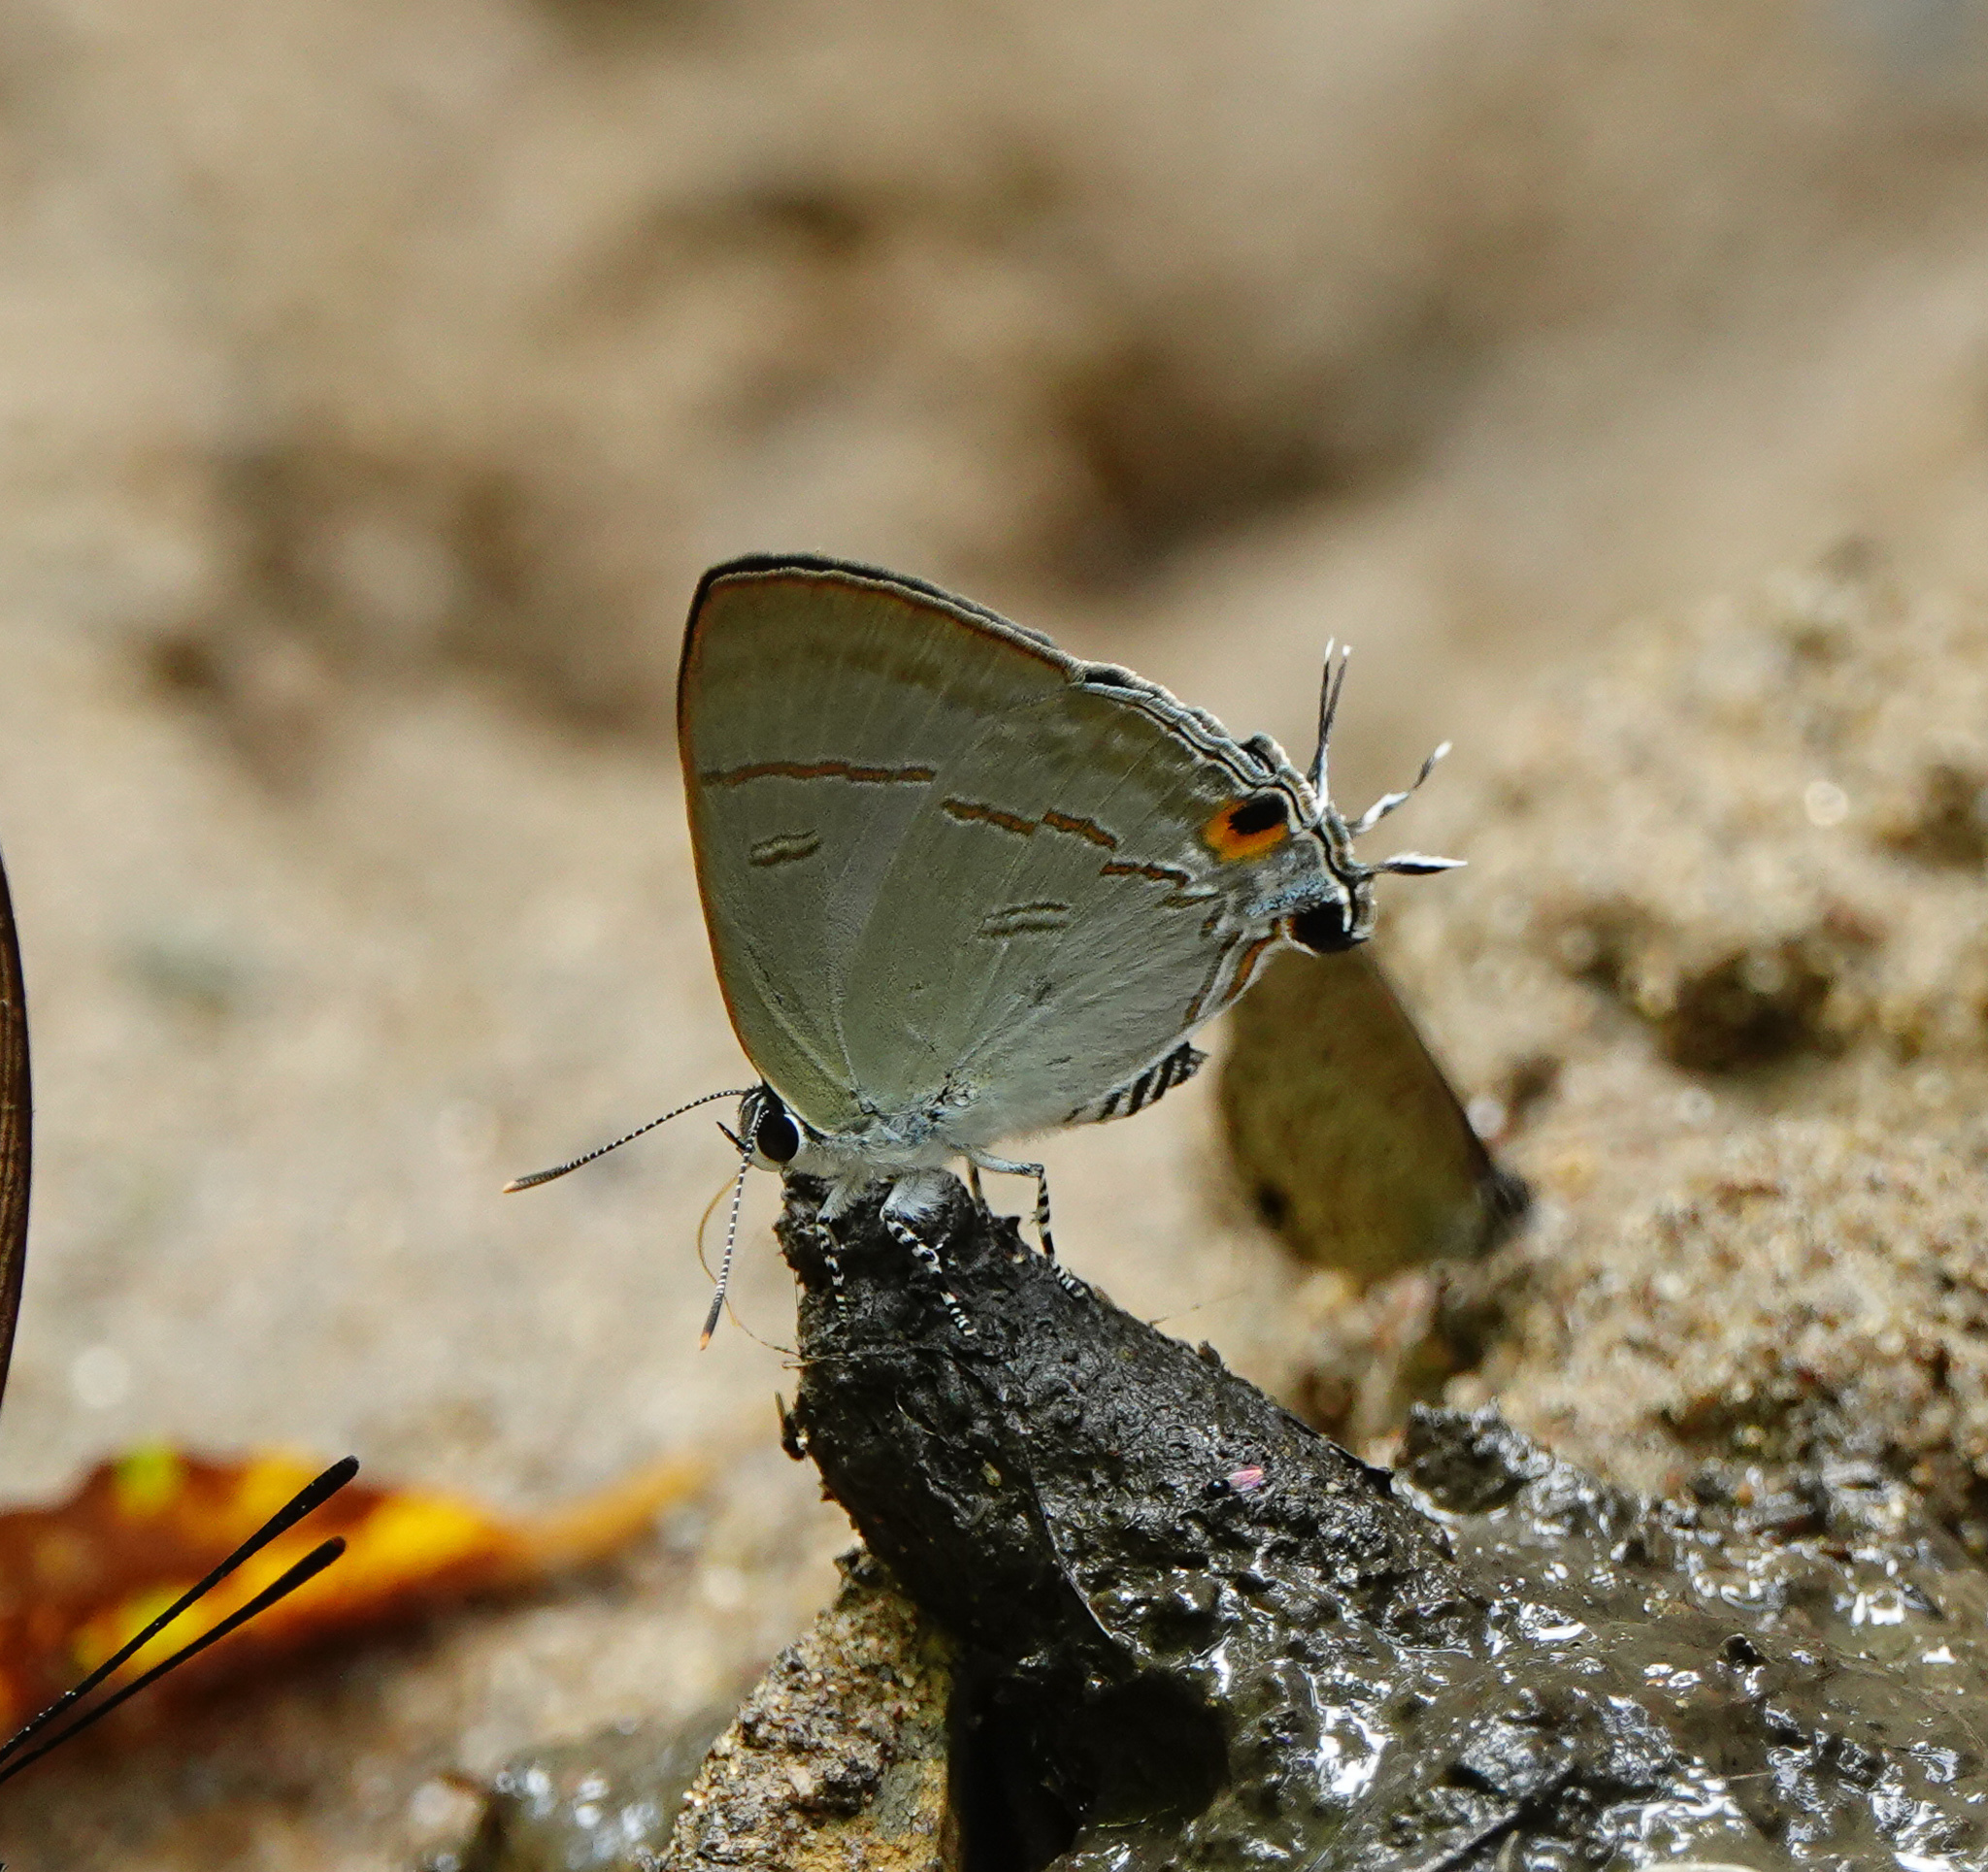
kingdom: Animalia
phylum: Arthropoda
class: Insecta
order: Lepidoptera
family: Lycaenidae
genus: Hypolycaena
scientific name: Hypolycaena erylus
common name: Common tit
